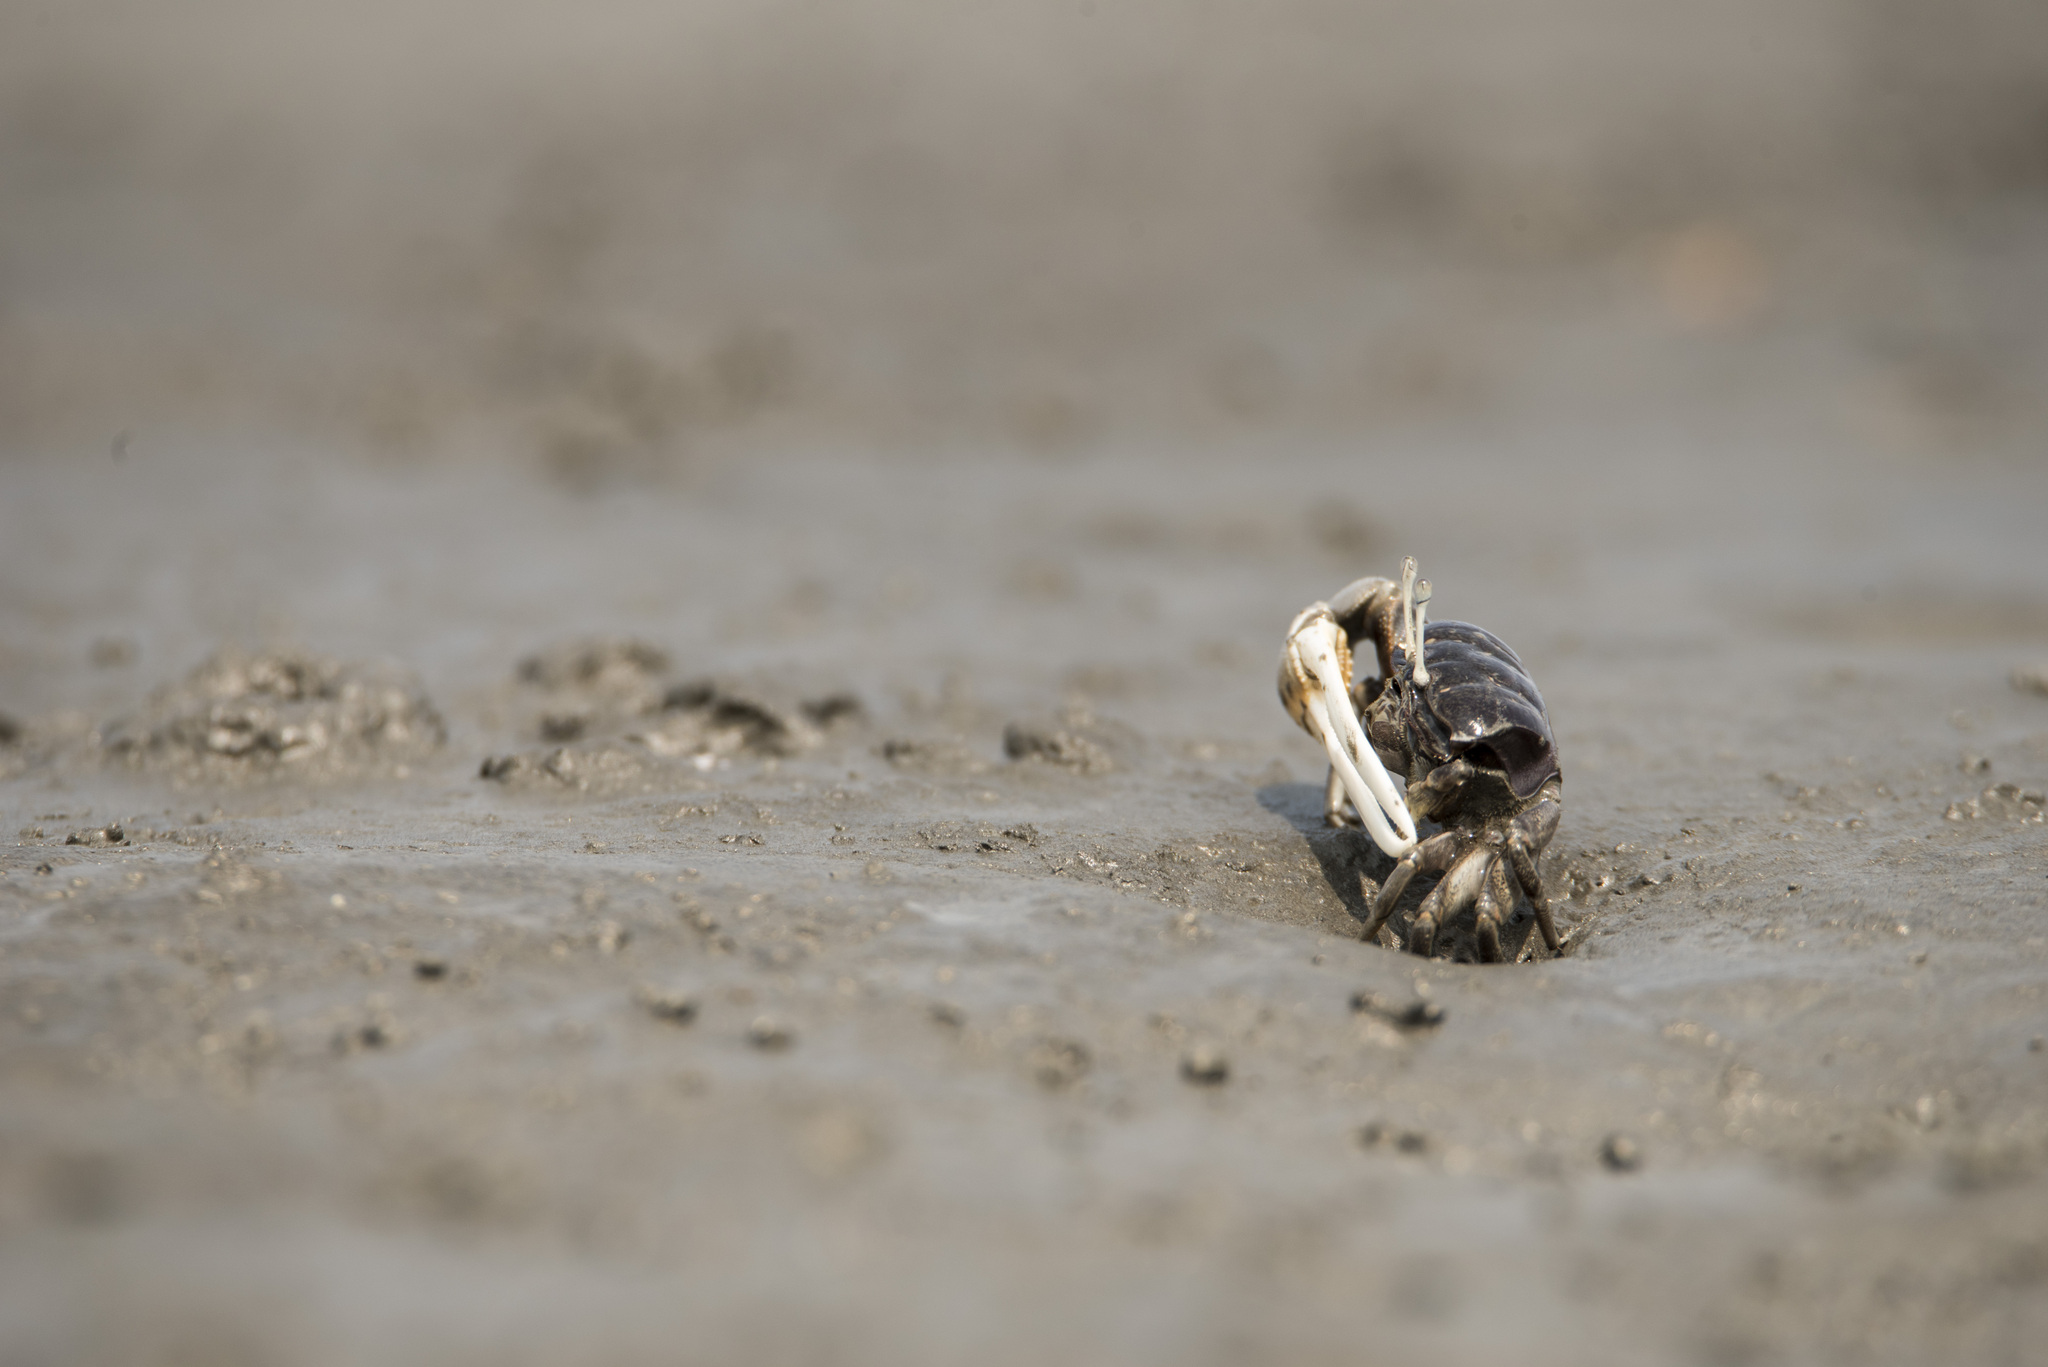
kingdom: Animalia
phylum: Arthropoda
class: Malacostraca
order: Decapoda
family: Ocypodidae
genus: Xeruca
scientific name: Xeruca formosensis
